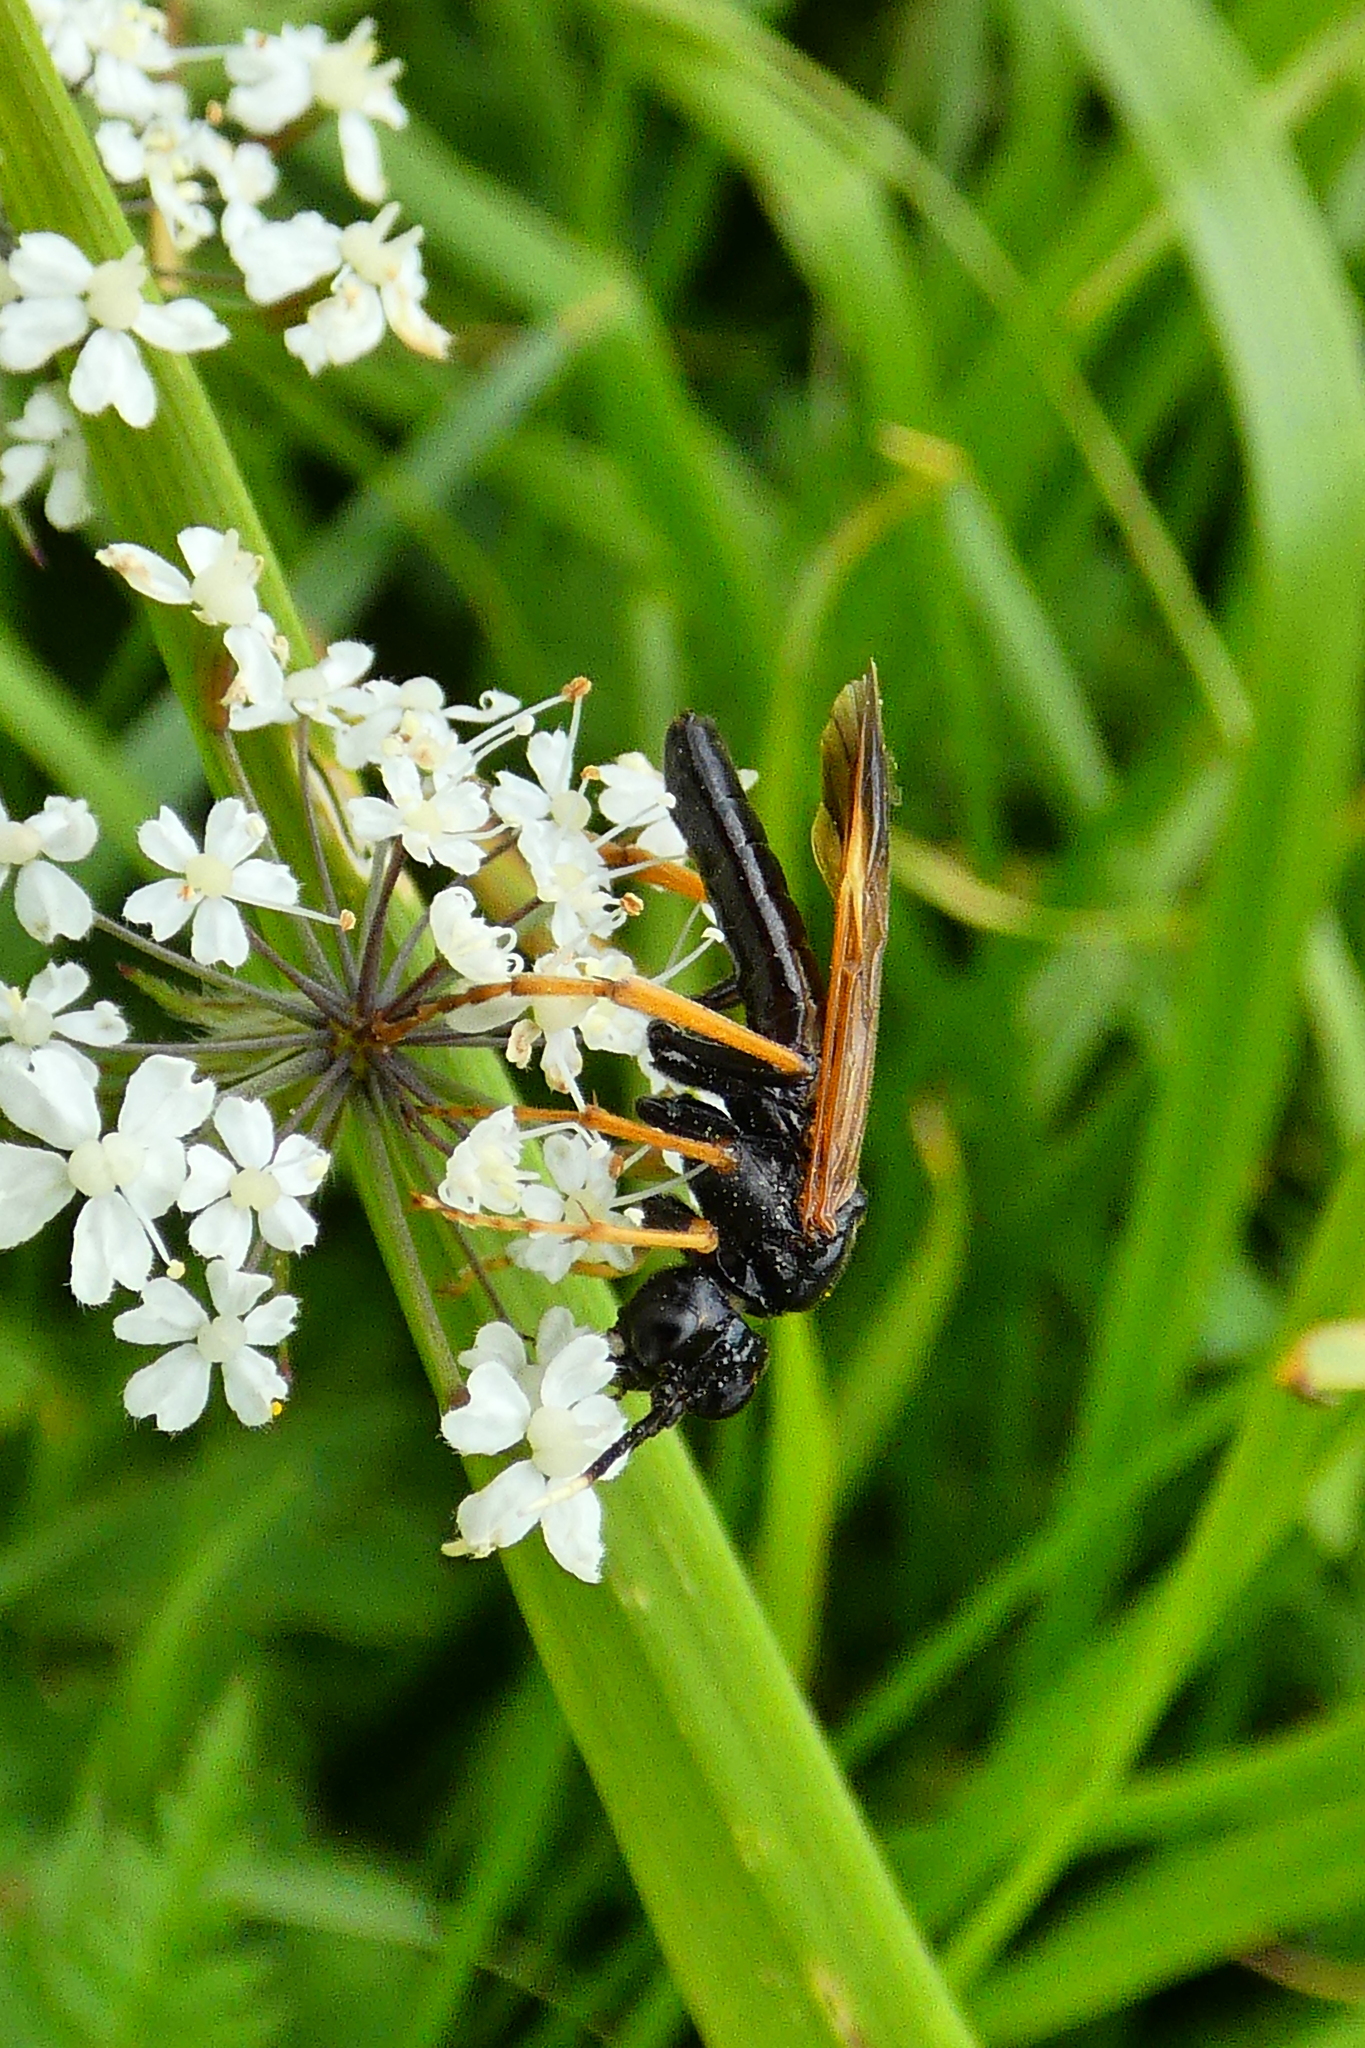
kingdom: Animalia
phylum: Arthropoda
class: Insecta
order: Hymenoptera
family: Tenthredinidae
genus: Tenthredo
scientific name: Tenthredo crassa
